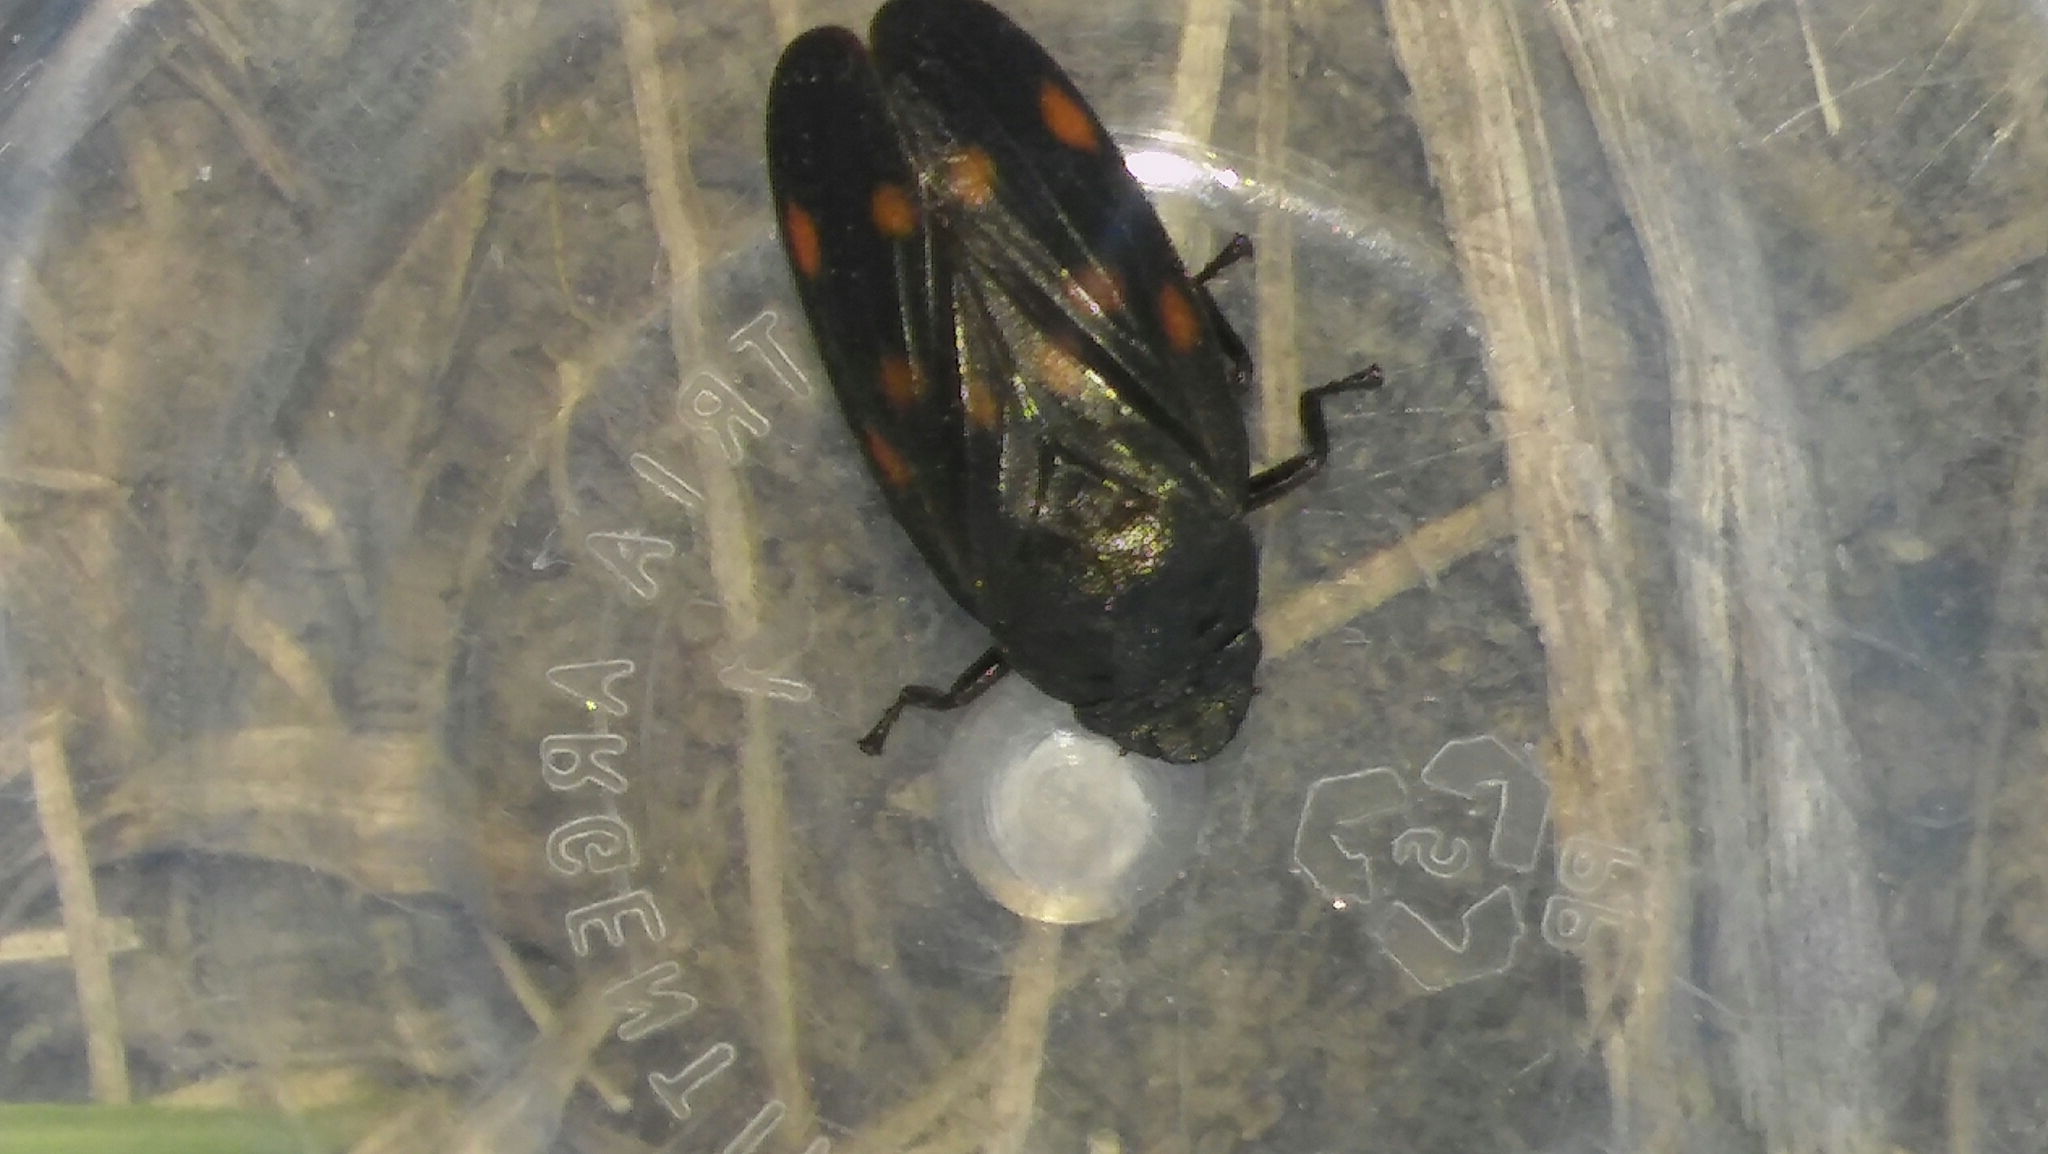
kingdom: Animalia
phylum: Arthropoda
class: Insecta
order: Hemiptera
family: Cercopidae
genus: Kanaima
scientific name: Kanaima fluvialis
